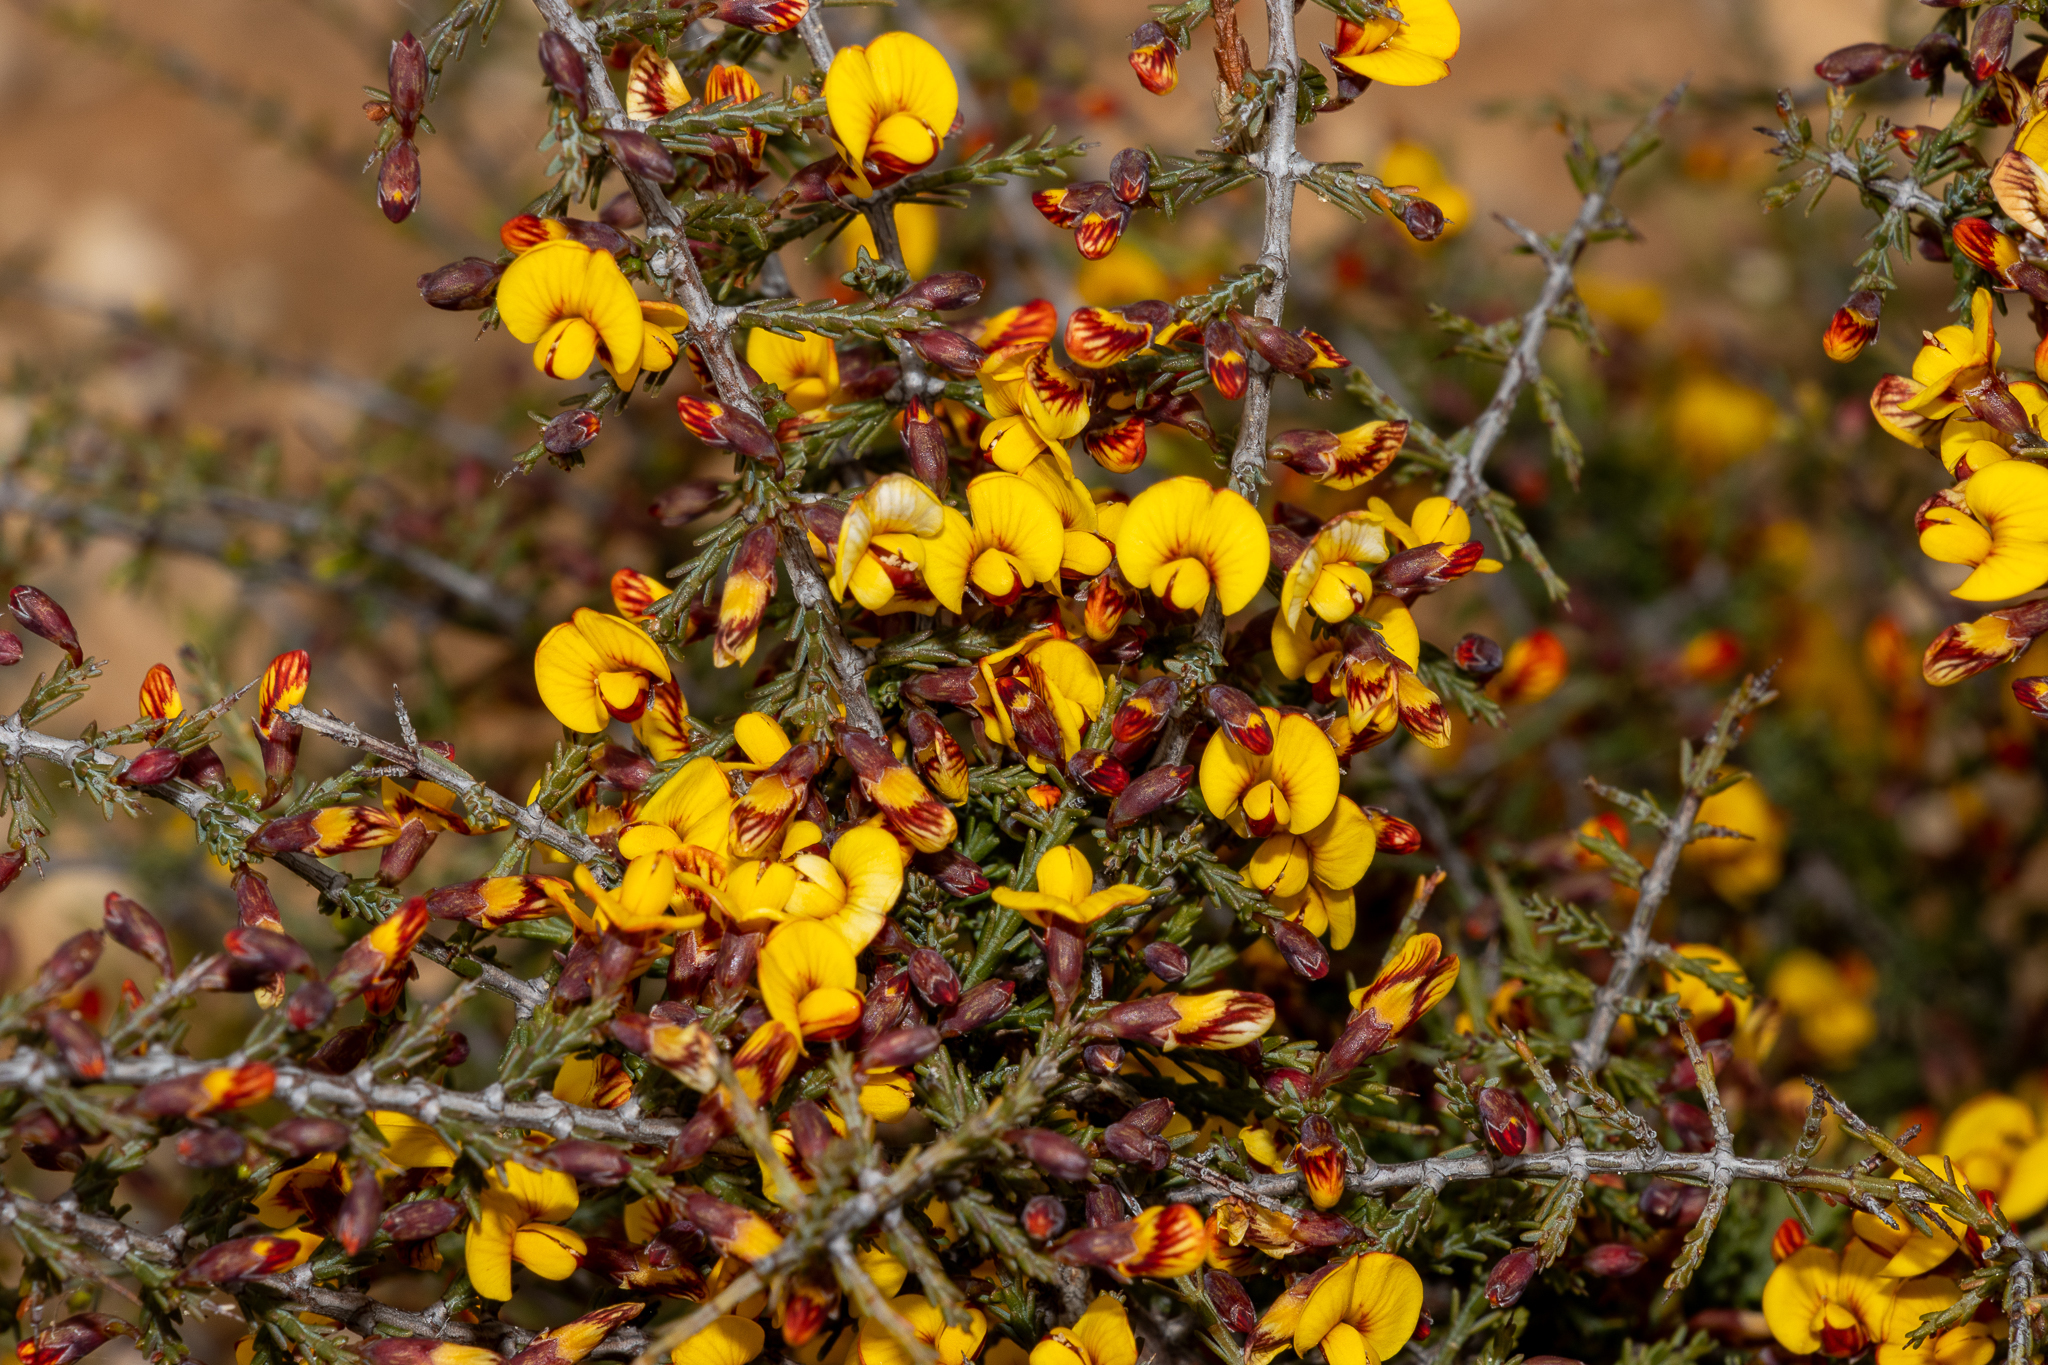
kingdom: Plantae
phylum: Tracheophyta
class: Magnoliopsida
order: Fabales
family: Fabaceae
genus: Eutaxia
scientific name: Eutaxia microphylla
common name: Mallee bush-pea
